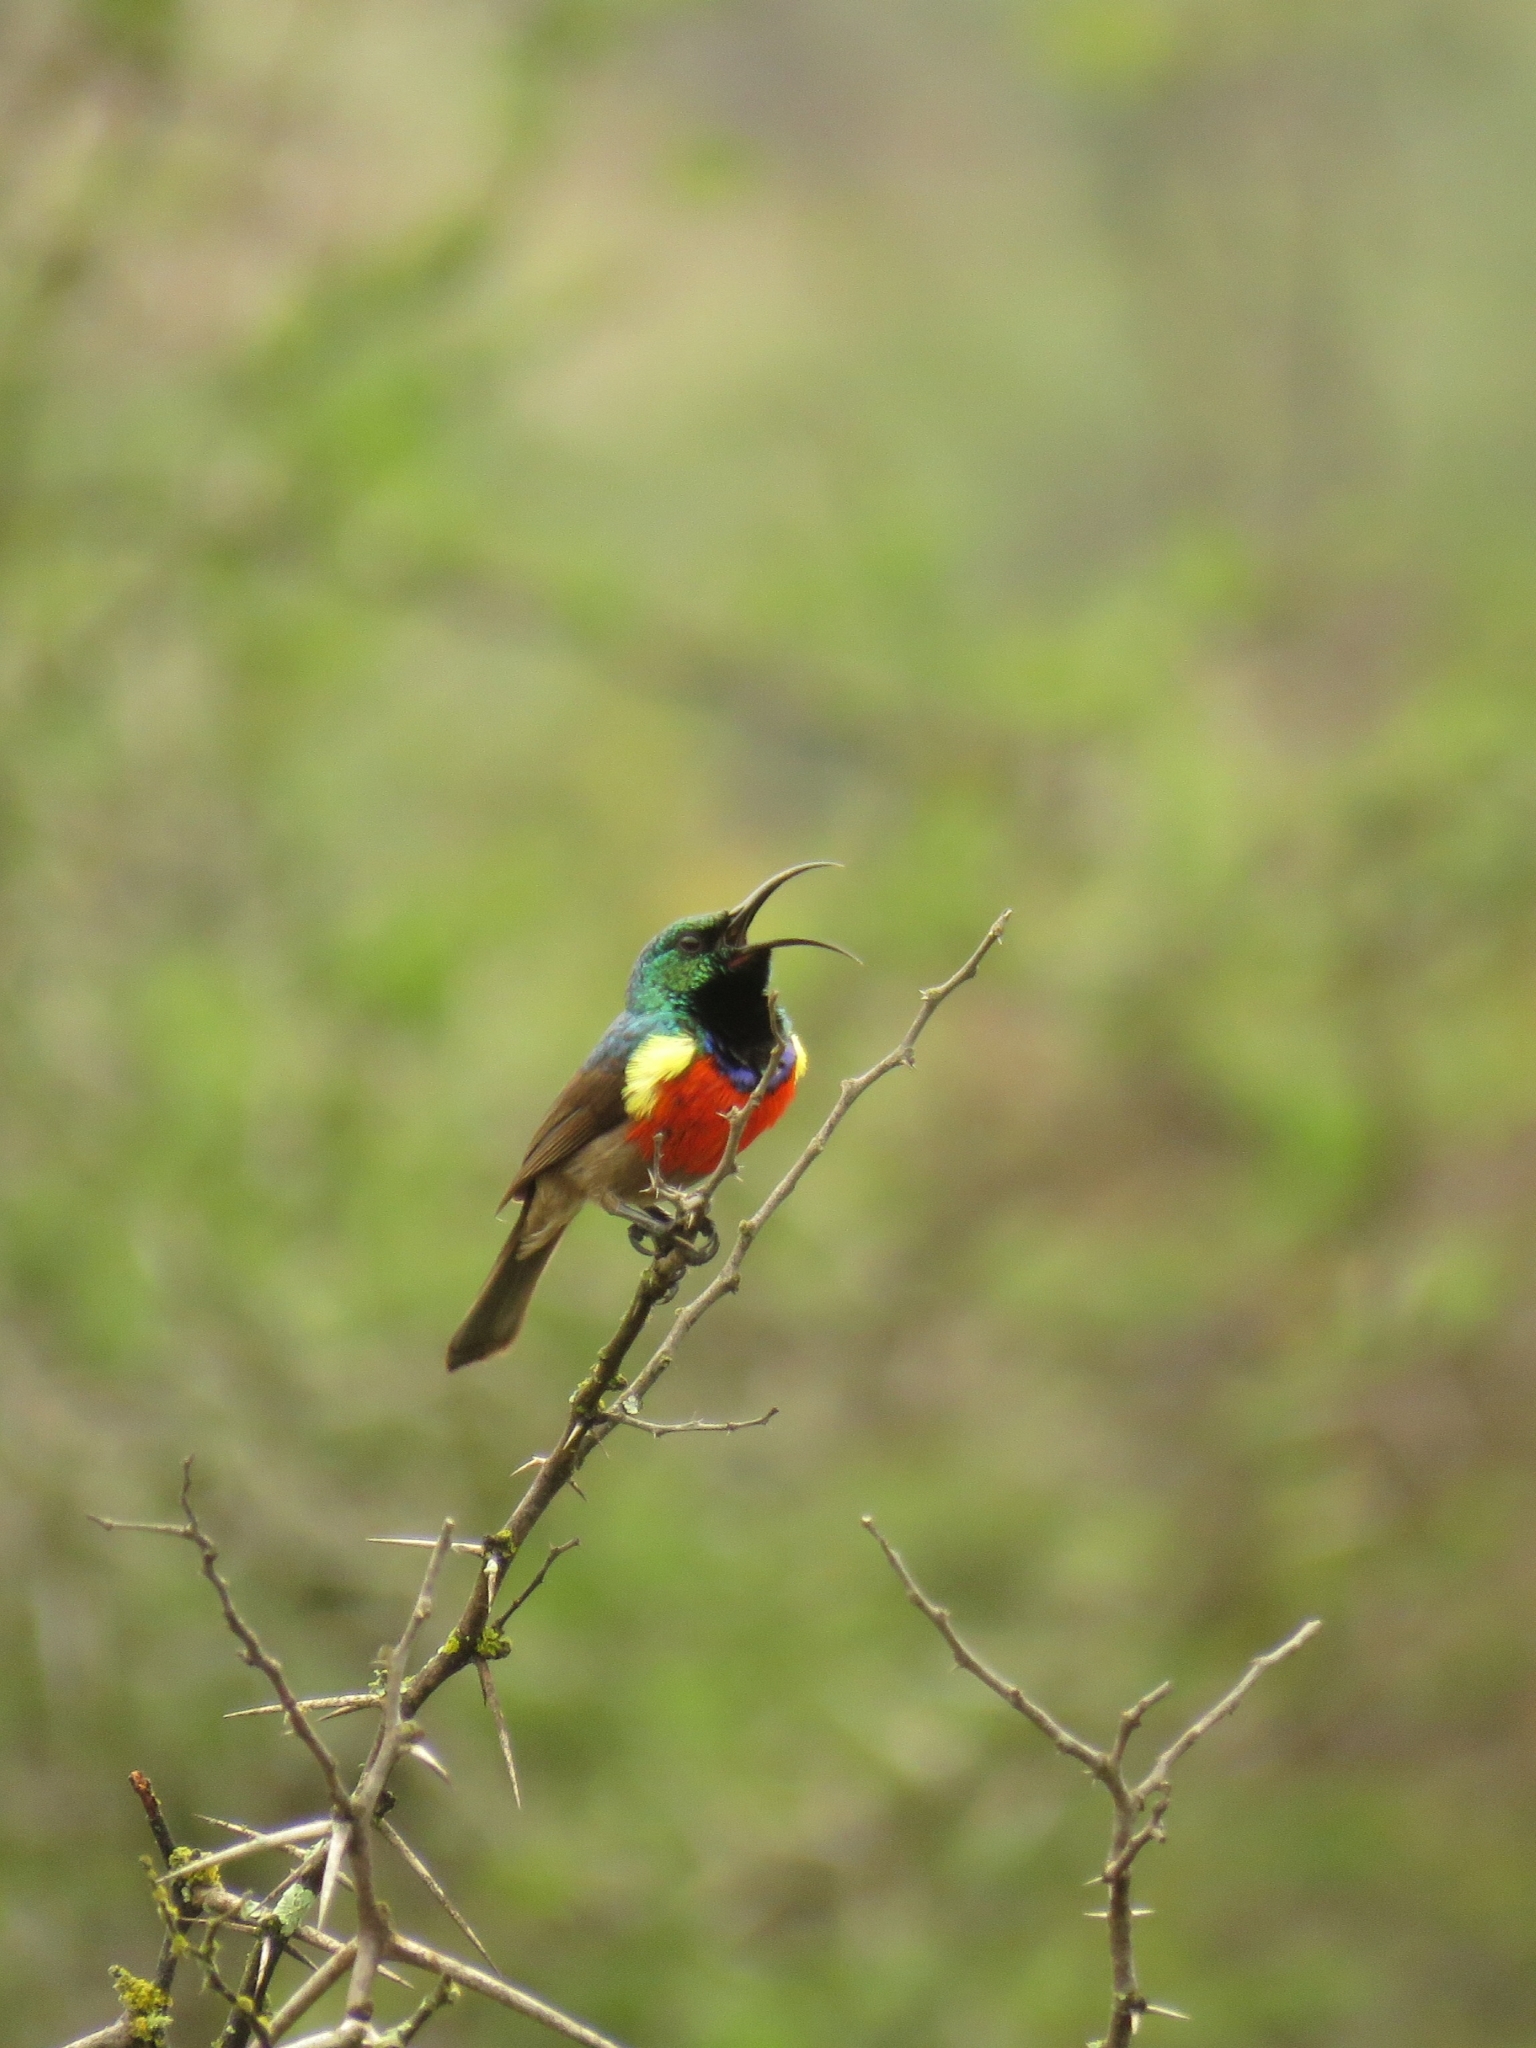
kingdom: Animalia
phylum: Chordata
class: Aves
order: Passeriformes
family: Nectariniidae
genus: Cinnyris
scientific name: Cinnyris afer
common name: Greater double-collared sunbird
